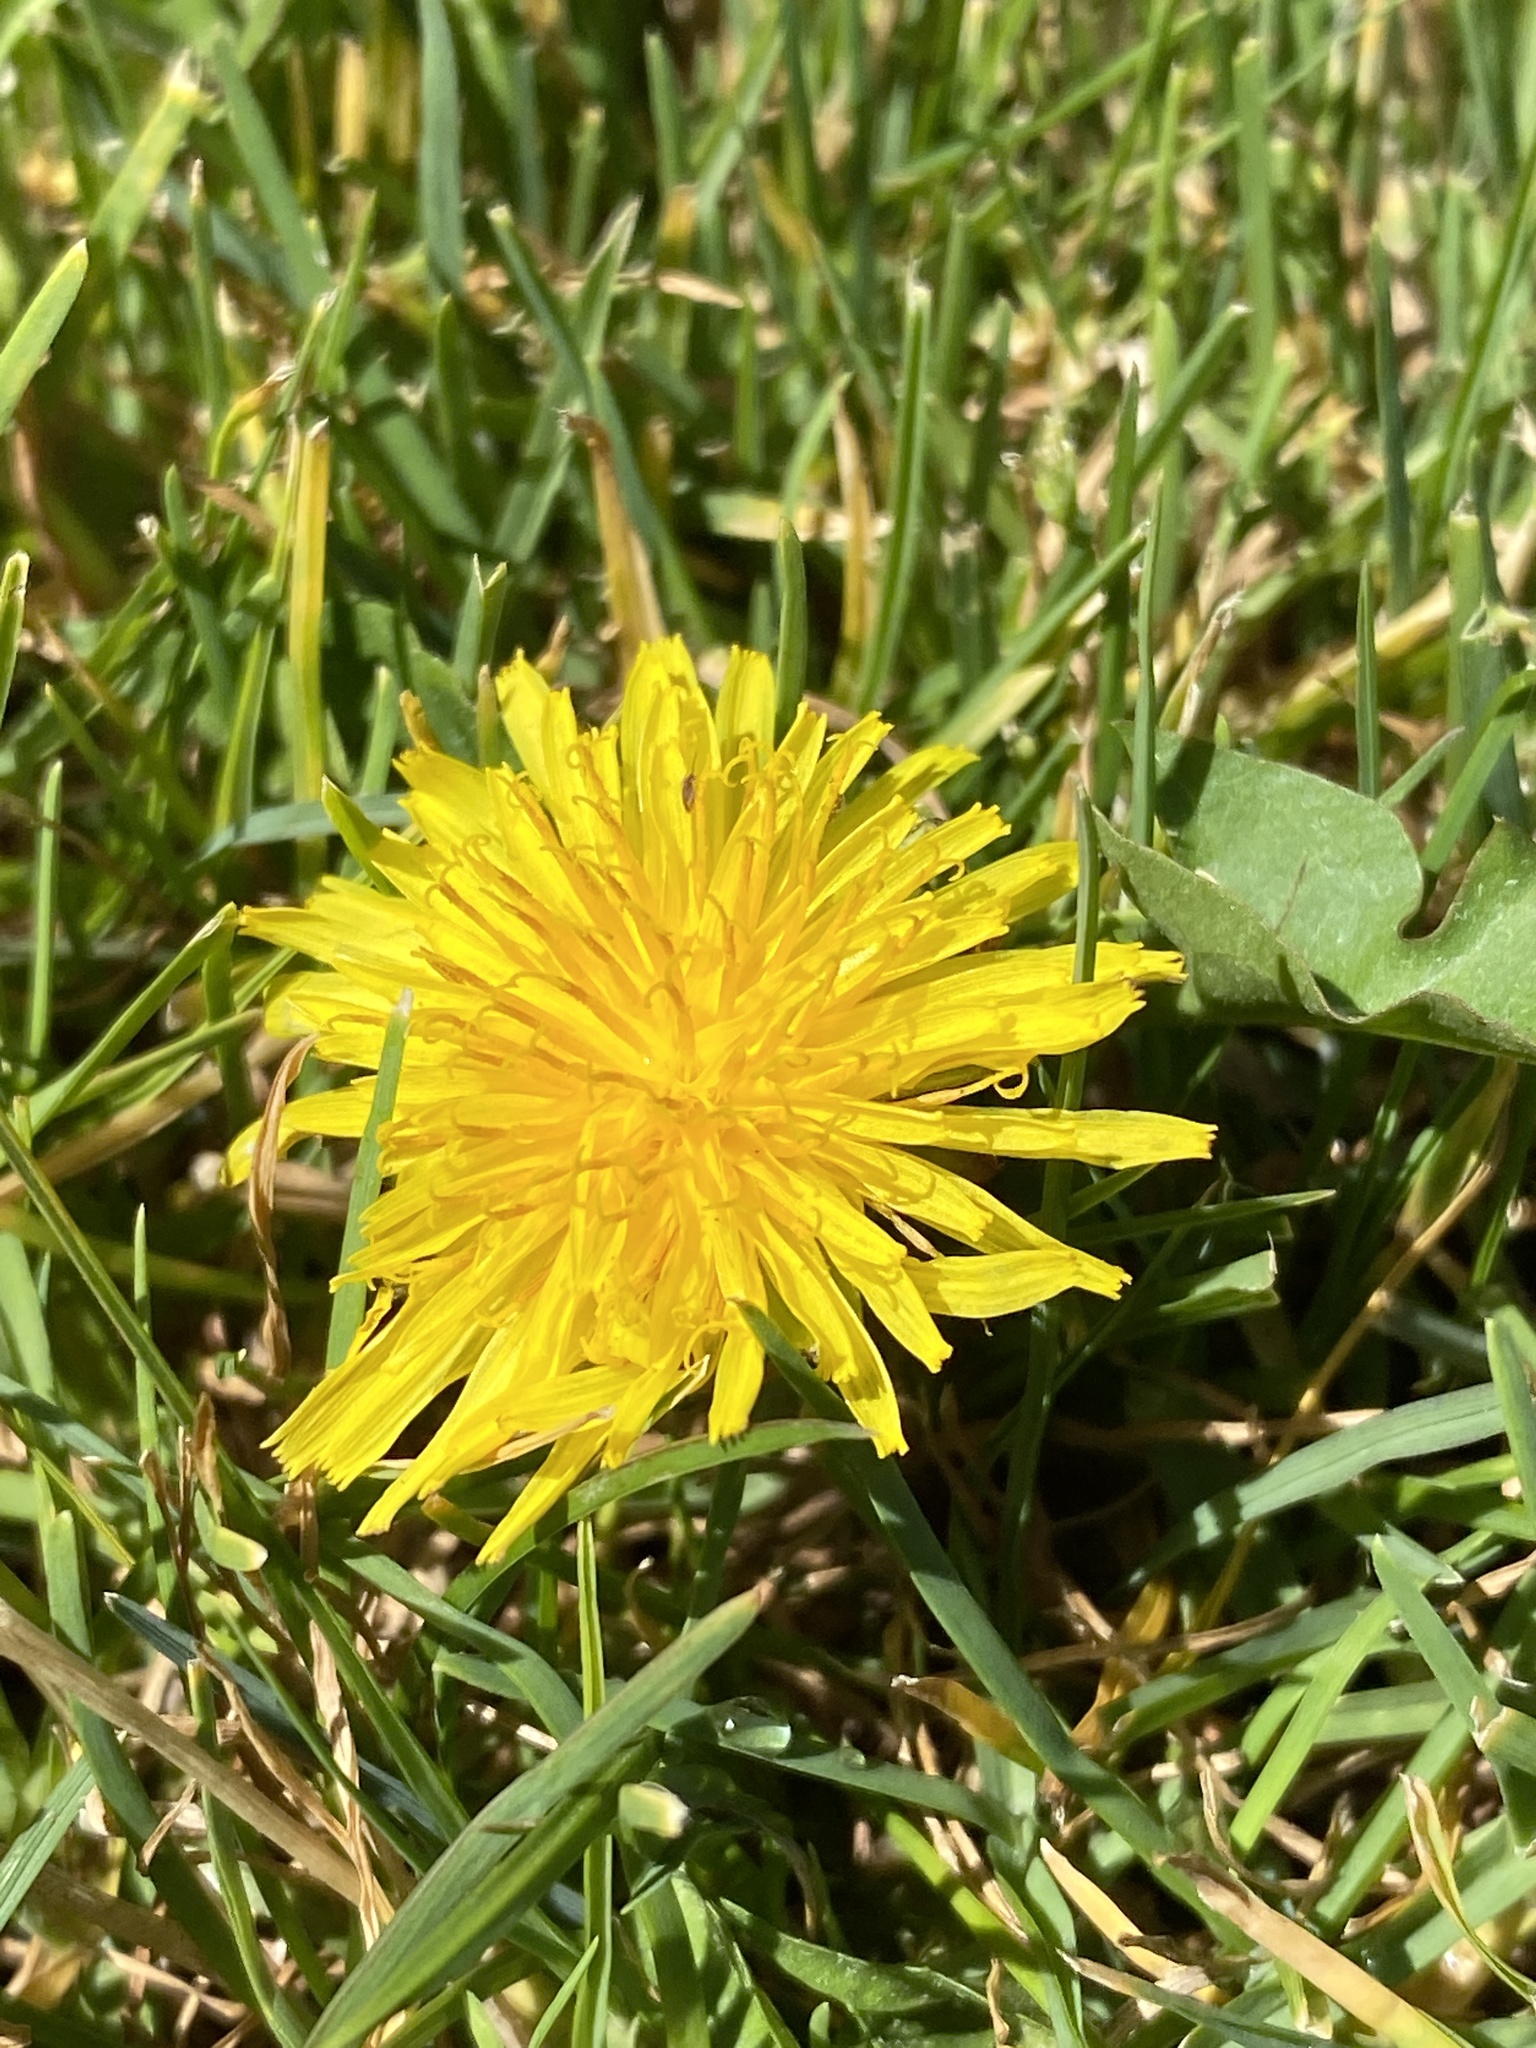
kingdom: Plantae
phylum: Tracheophyta
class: Magnoliopsida
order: Asterales
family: Asteraceae
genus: Taraxacum
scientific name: Taraxacum officinale
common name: Common dandelion
